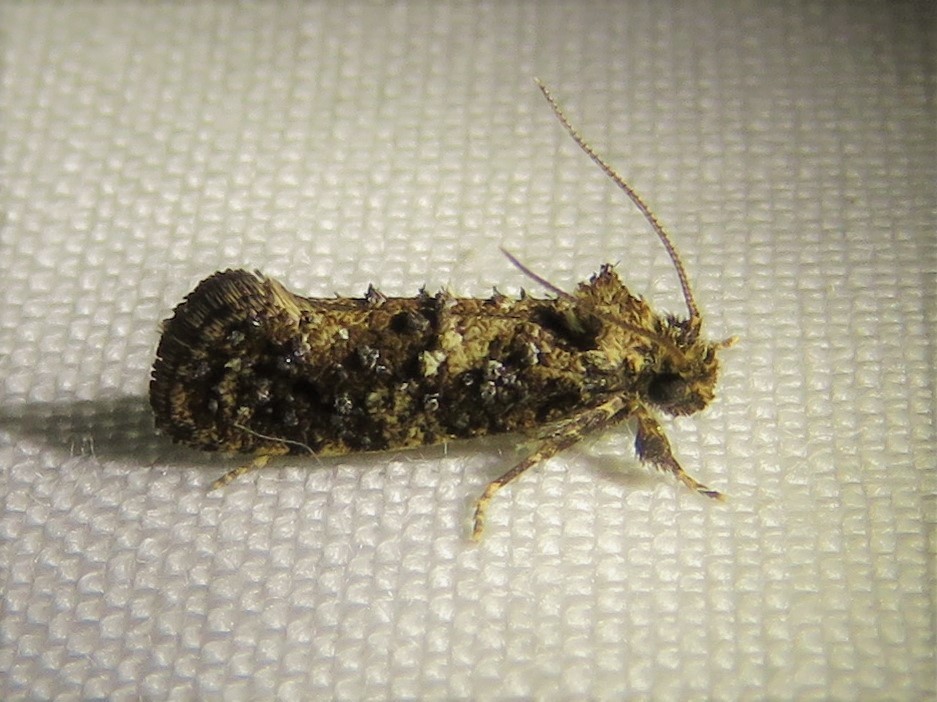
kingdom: Animalia
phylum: Arthropoda
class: Insecta
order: Lepidoptera
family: Tineidae
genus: Acrolophus
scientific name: Acrolophus cressoni
